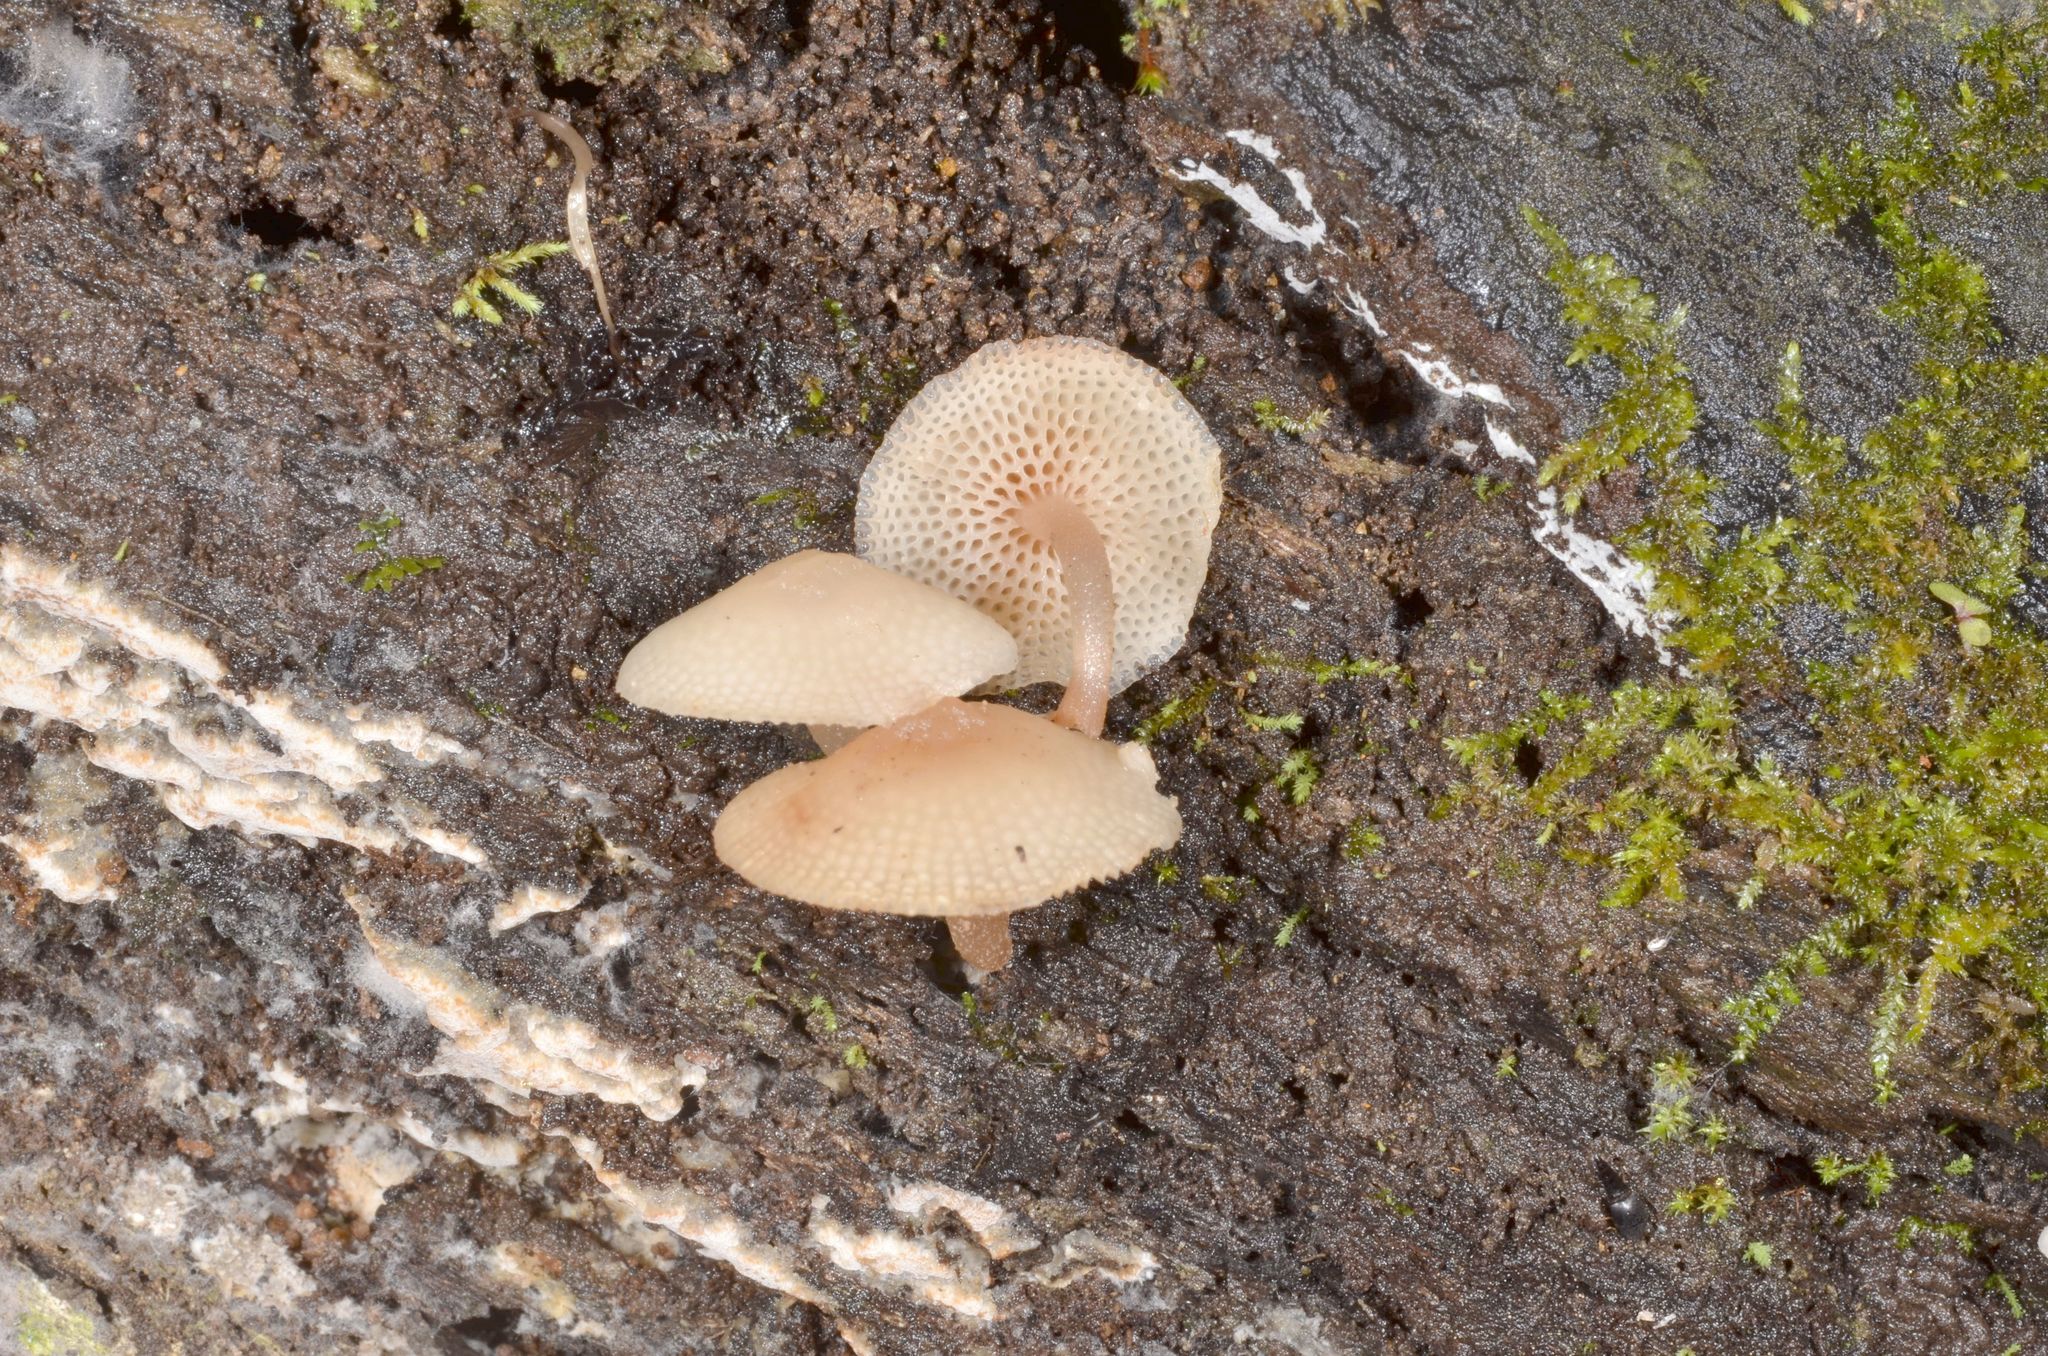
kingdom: Fungi
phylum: Basidiomycota
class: Agaricomycetes
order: Agaricales
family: Mycenaceae
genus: Filoboletus
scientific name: Filoboletus manipularis
